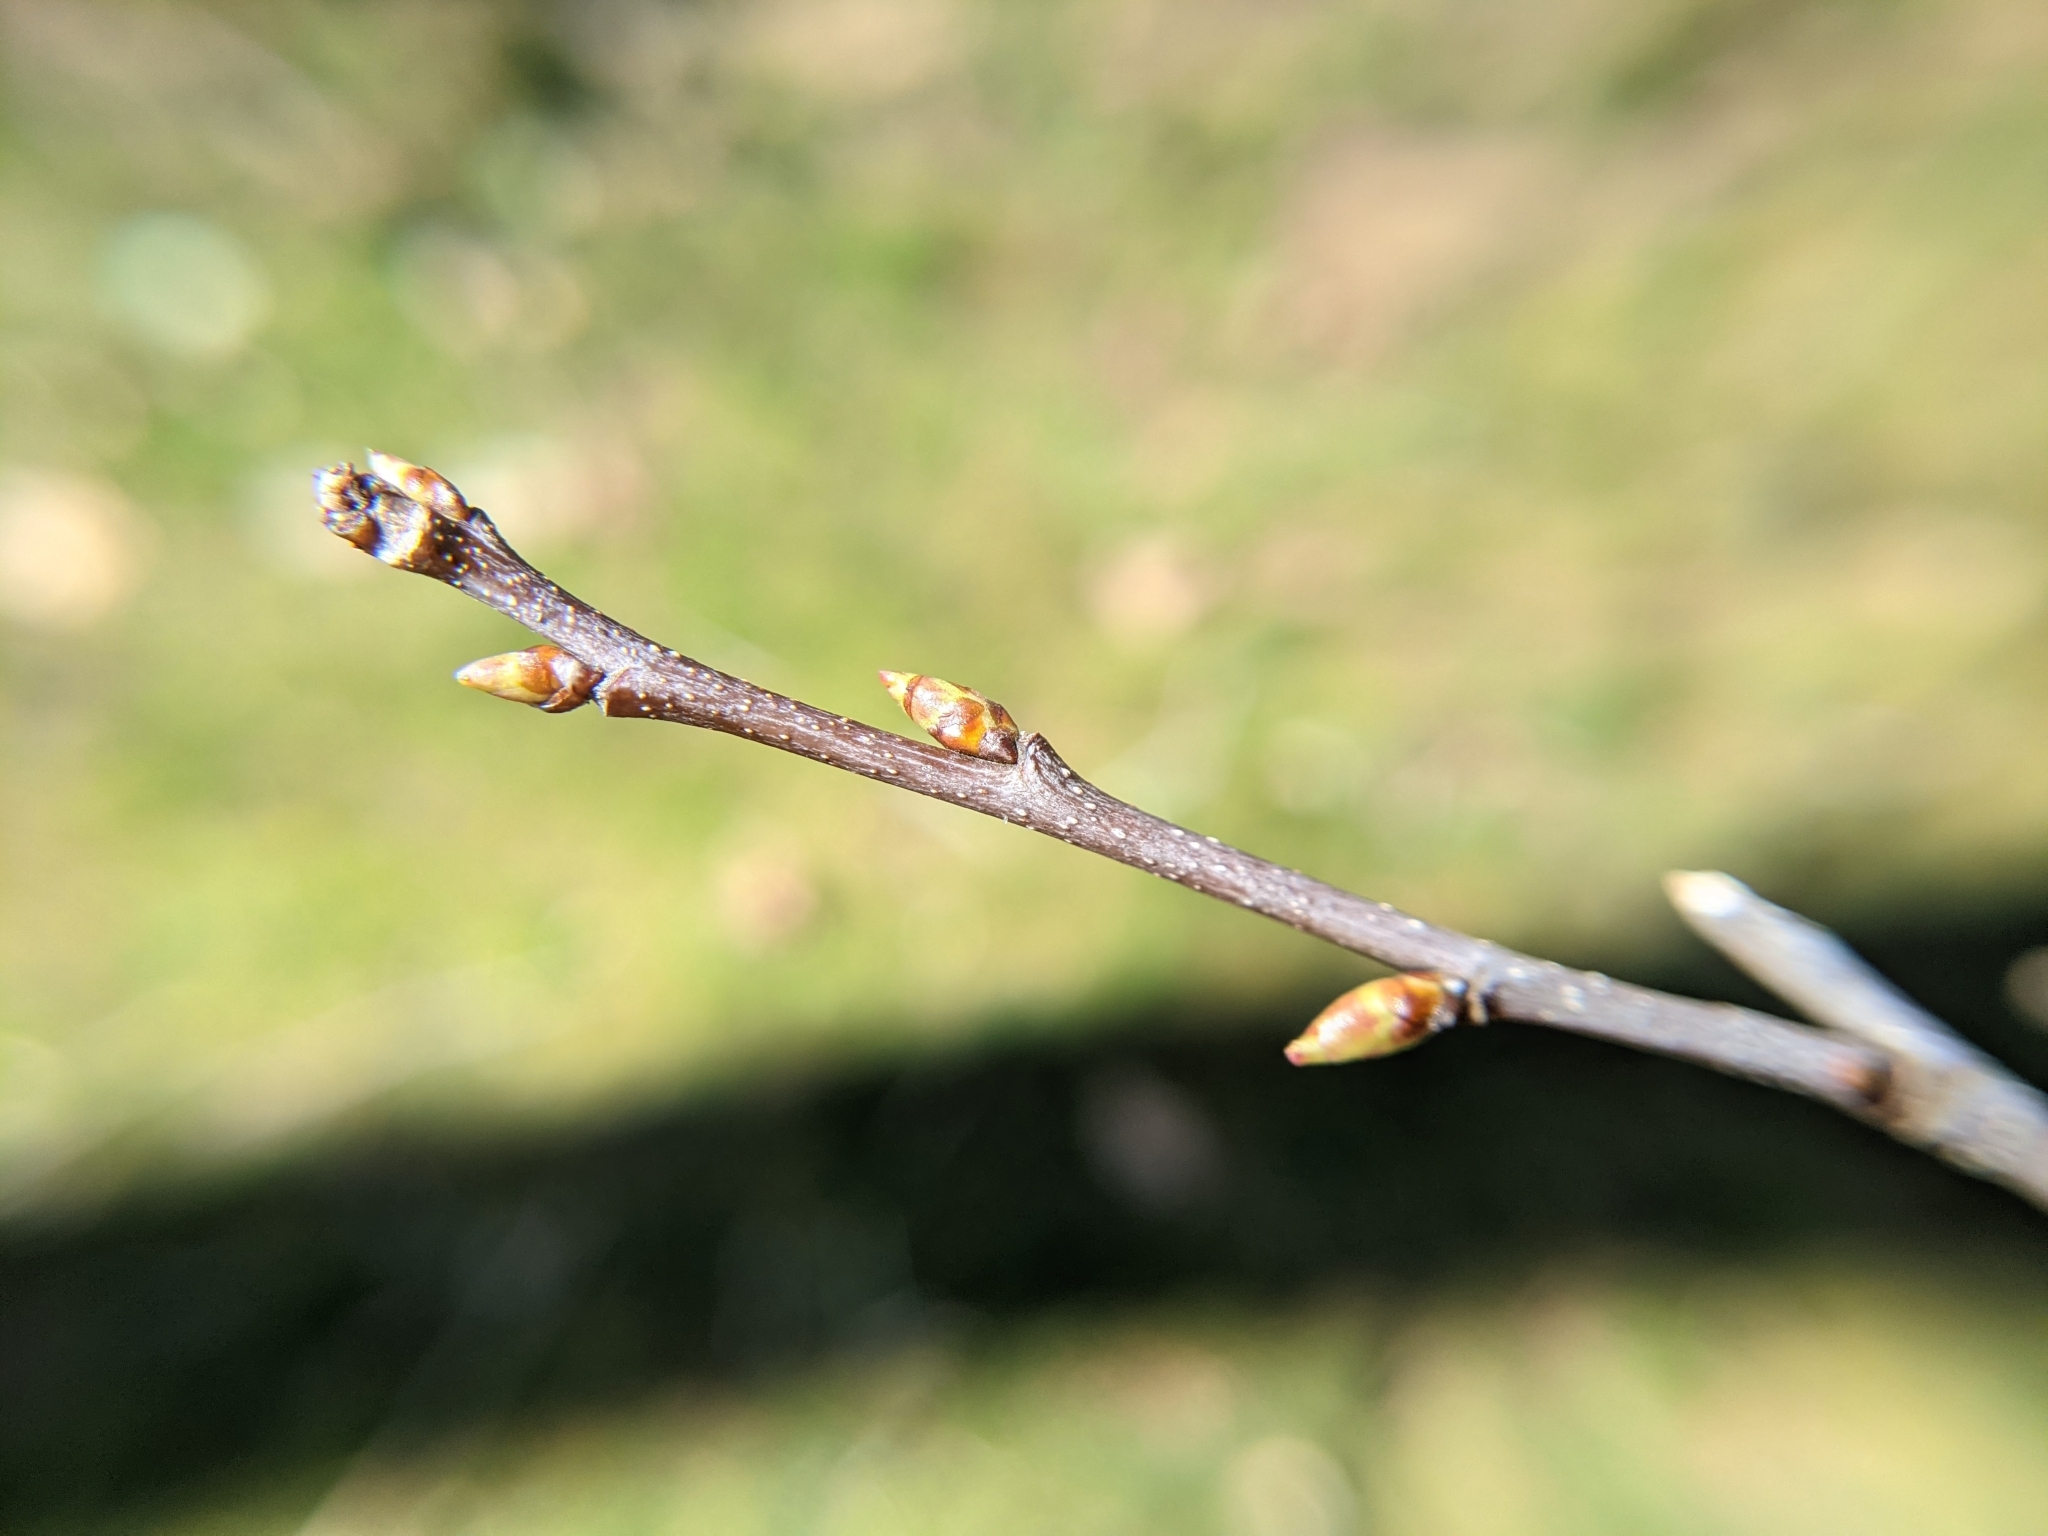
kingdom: Plantae
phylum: Tracheophyta
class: Magnoliopsida
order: Rosales
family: Rosaceae
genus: Prunus
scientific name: Prunus serotina
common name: Black cherry
